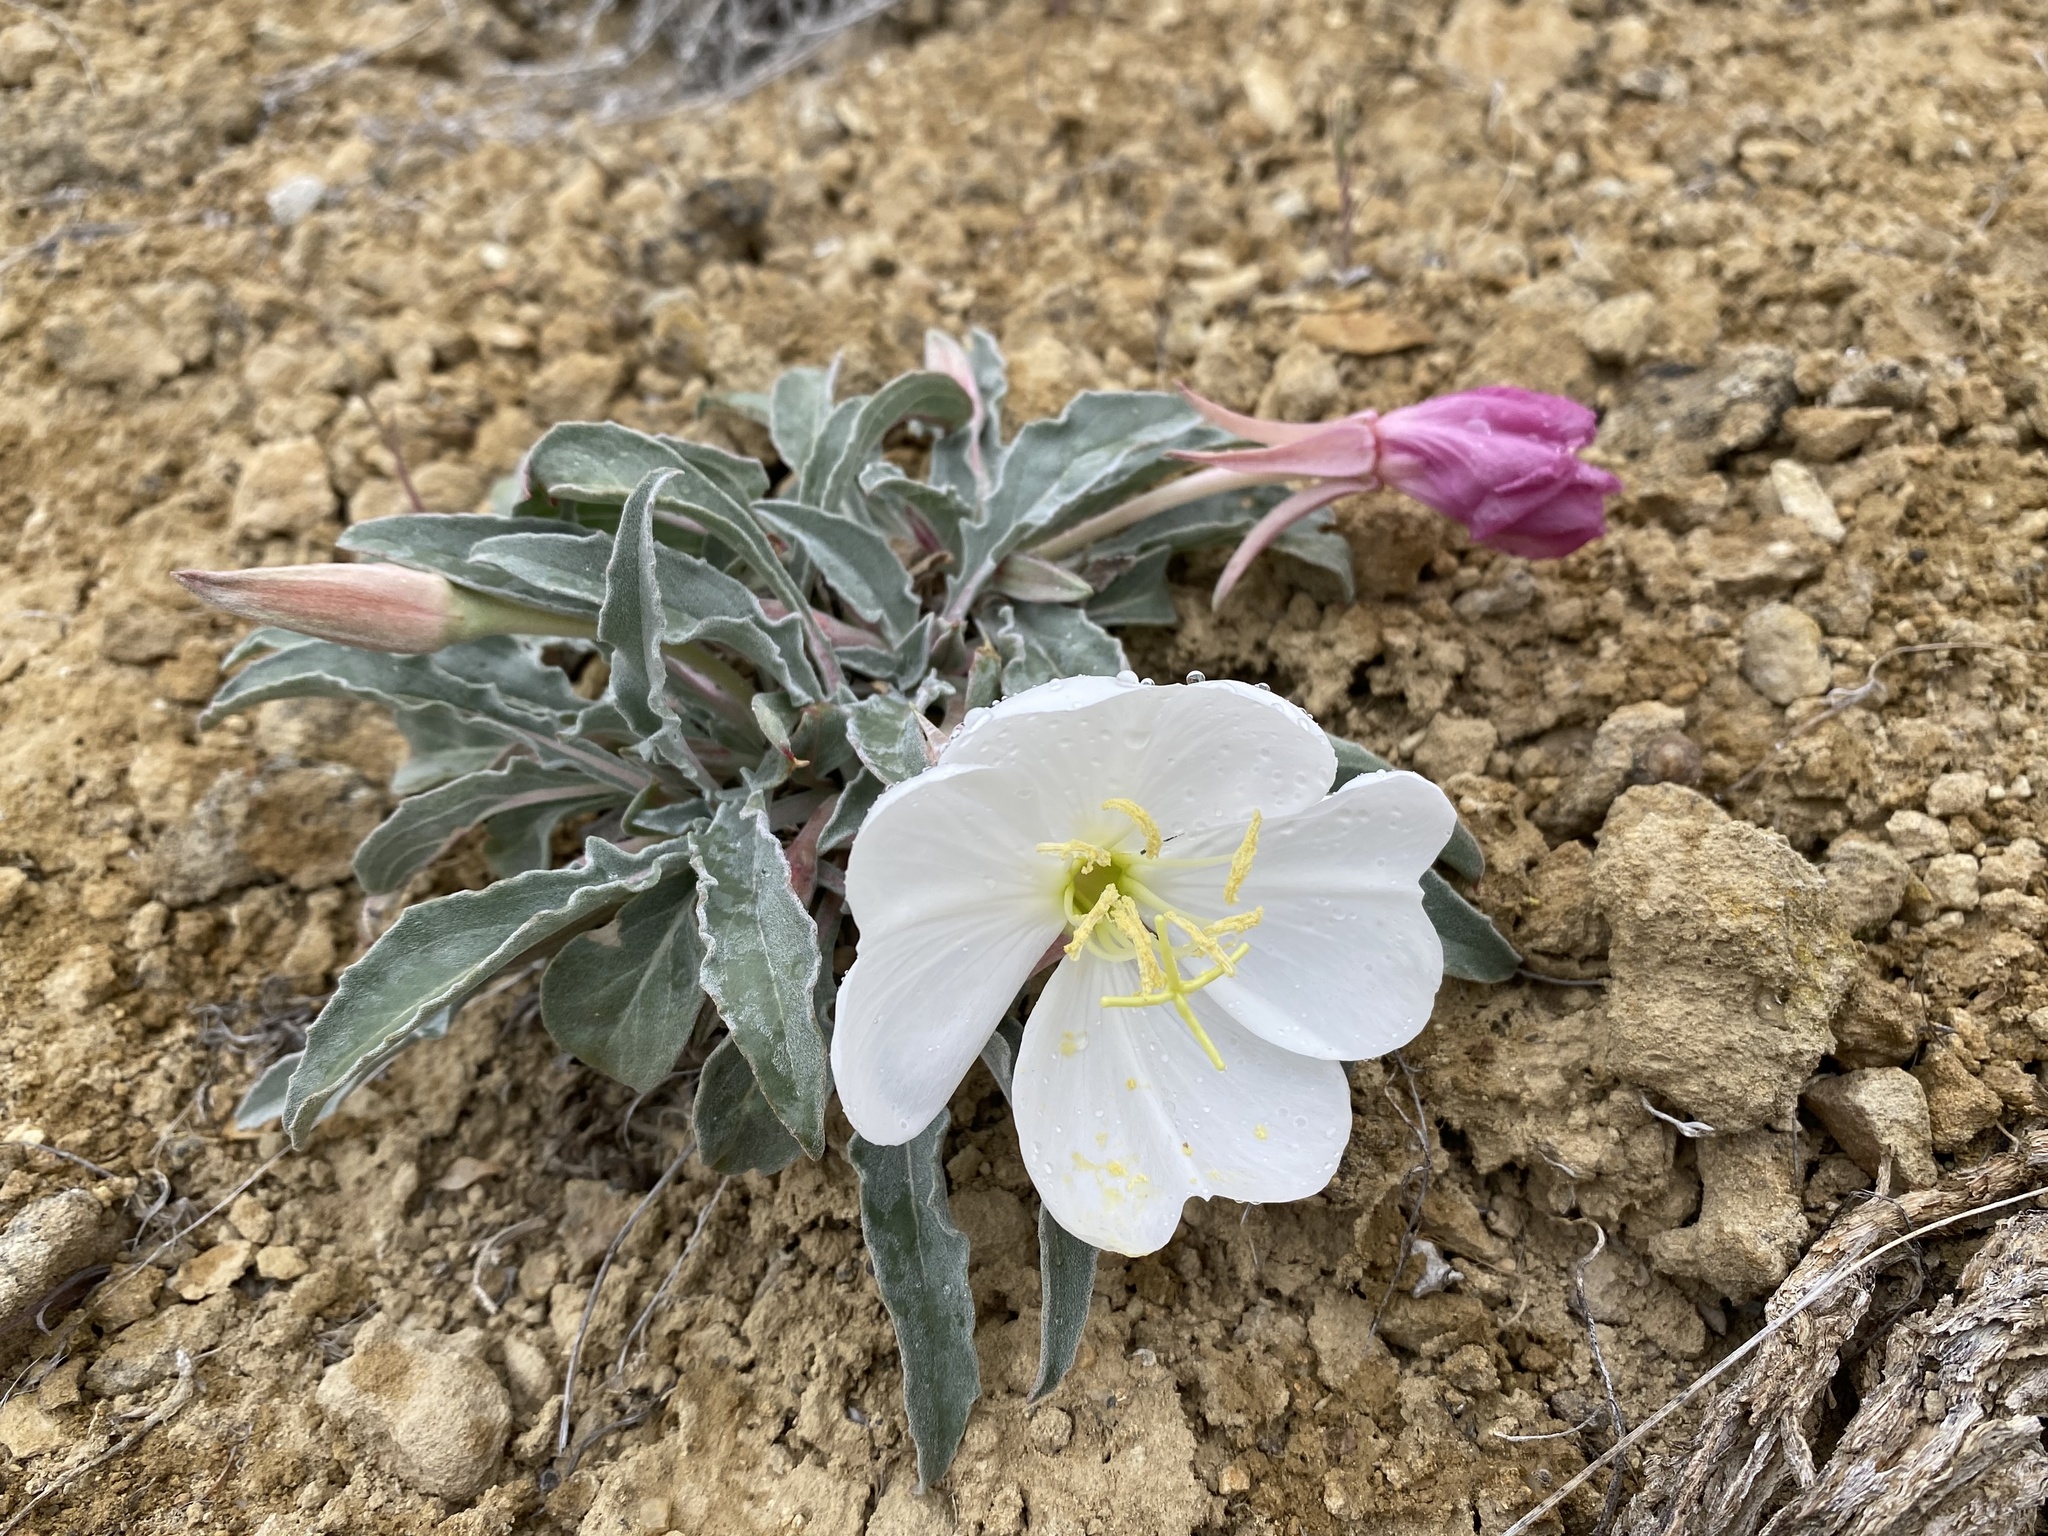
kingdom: Plantae
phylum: Tracheophyta
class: Magnoliopsida
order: Myrtales
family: Onagraceae
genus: Oenothera
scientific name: Oenothera cespitosa
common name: Tufted evening-primrose
